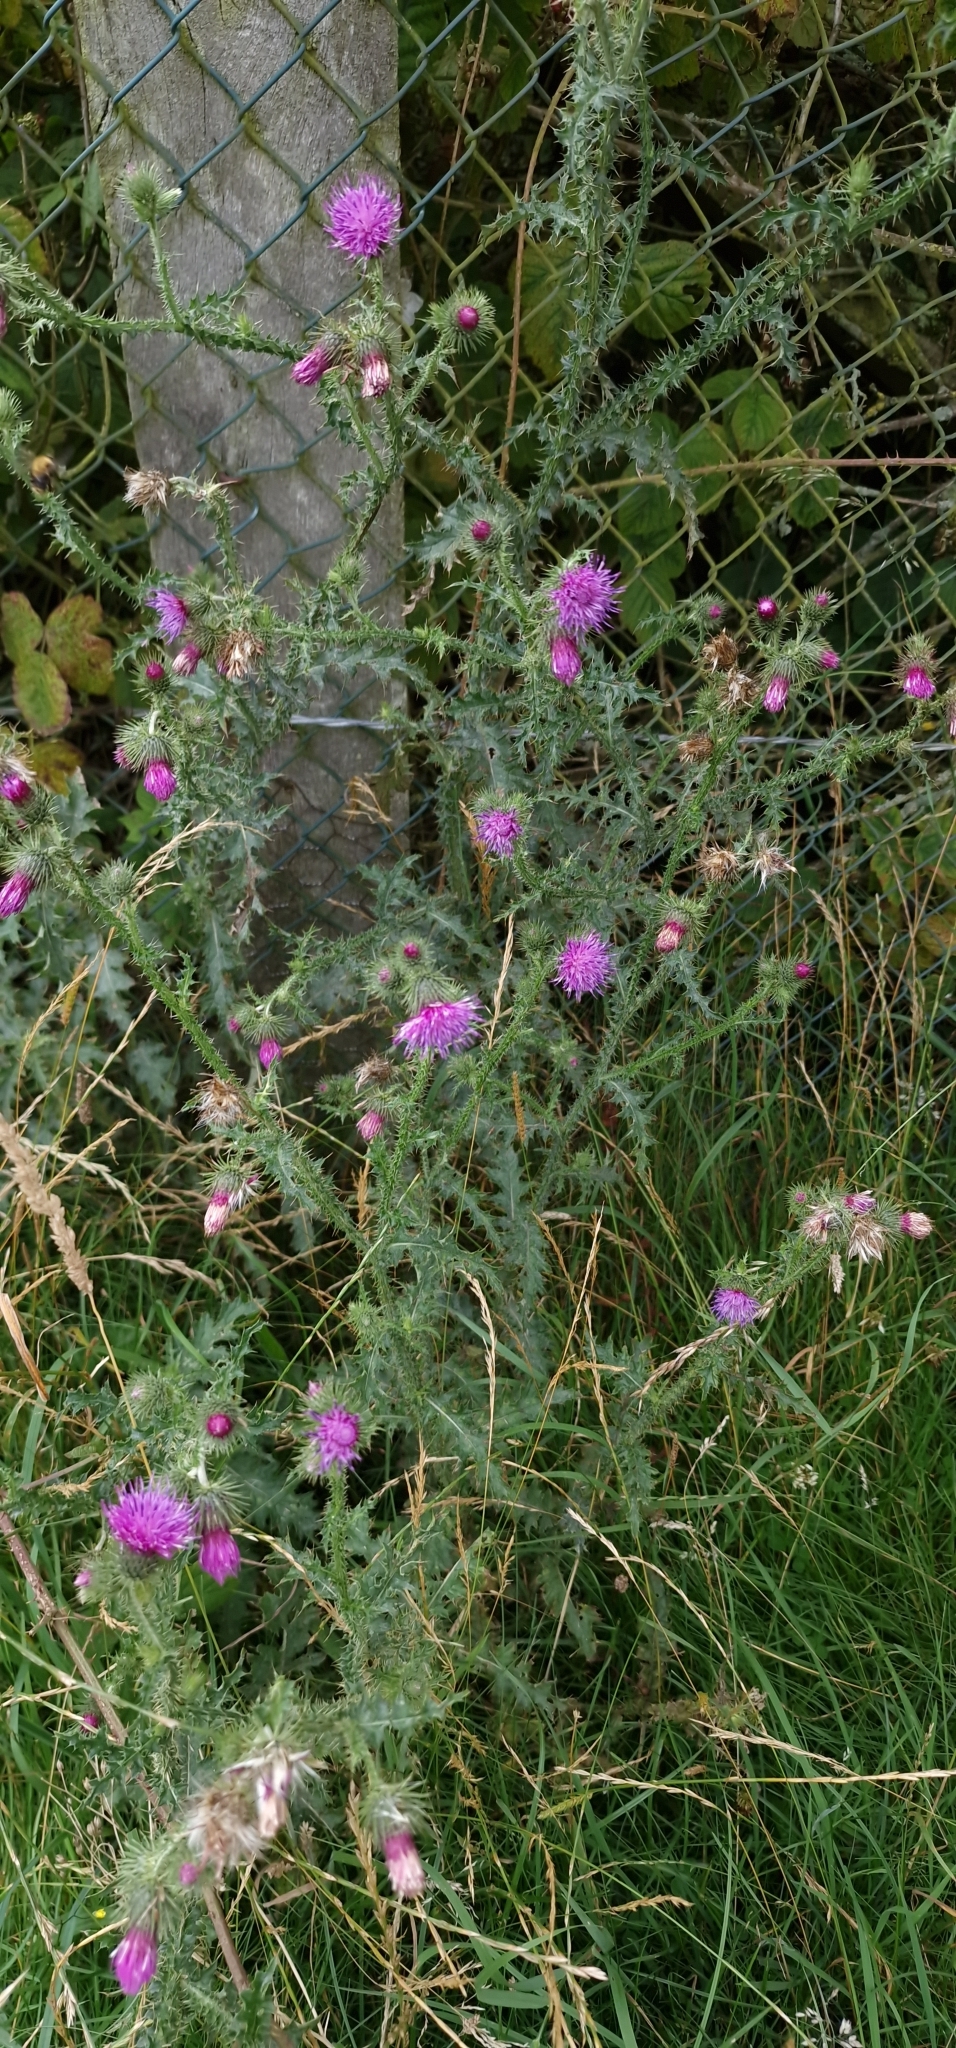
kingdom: Plantae
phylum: Tracheophyta
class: Magnoliopsida
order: Asterales
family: Asteraceae
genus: Carduus
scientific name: Carduus crispus
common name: Welted thistle
